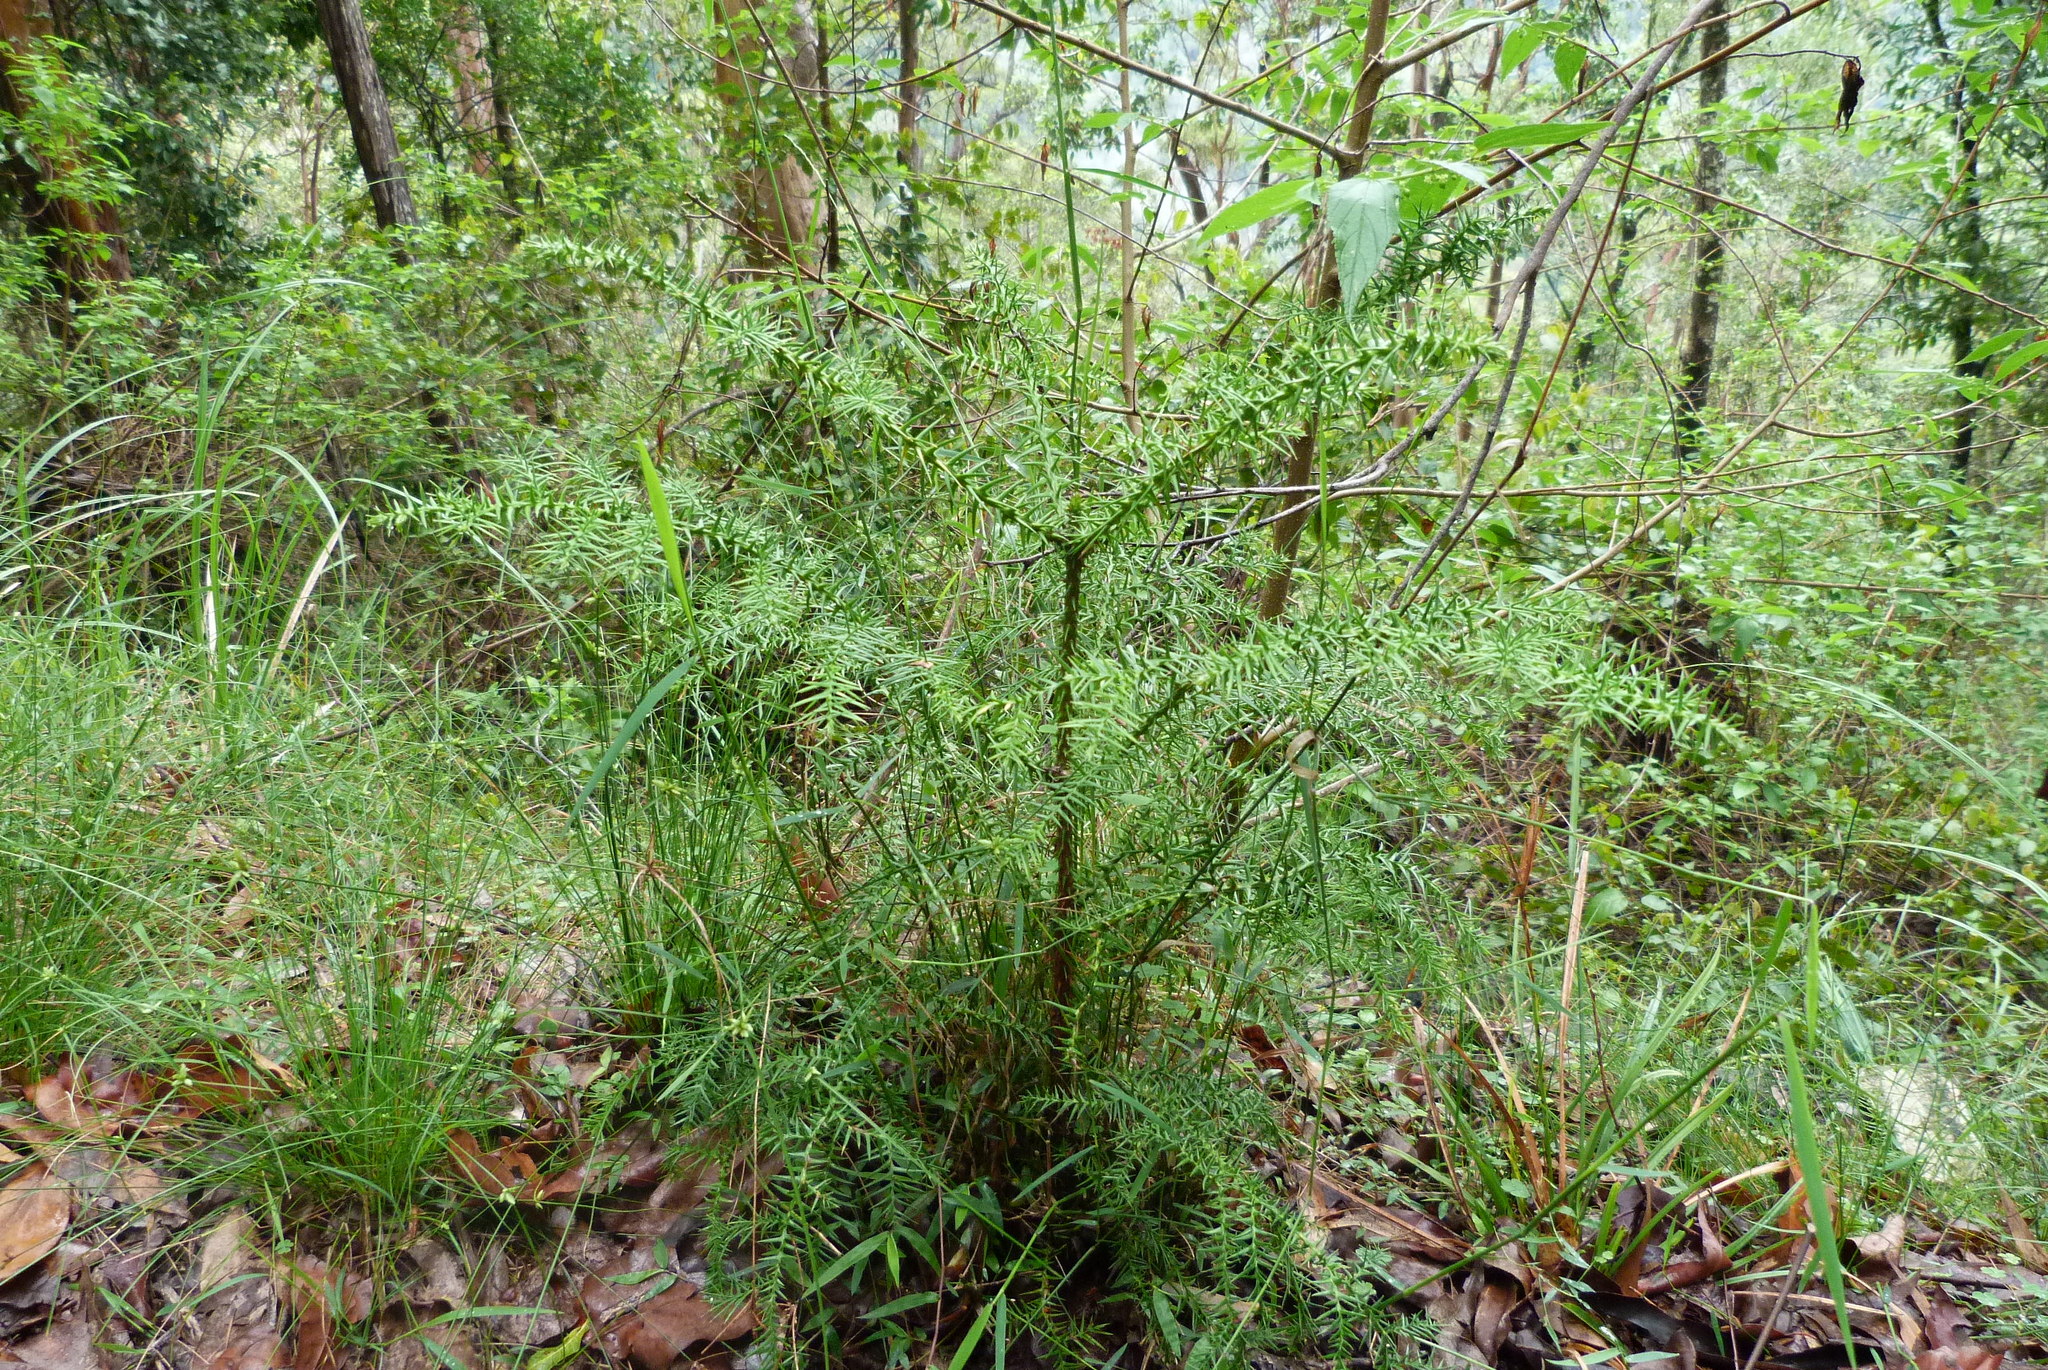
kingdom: Plantae
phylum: Tracheophyta
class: Pinopsida
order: Pinales
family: Araucariaceae
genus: Araucaria
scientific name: Araucaria cunninghamii
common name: Colonial pine
